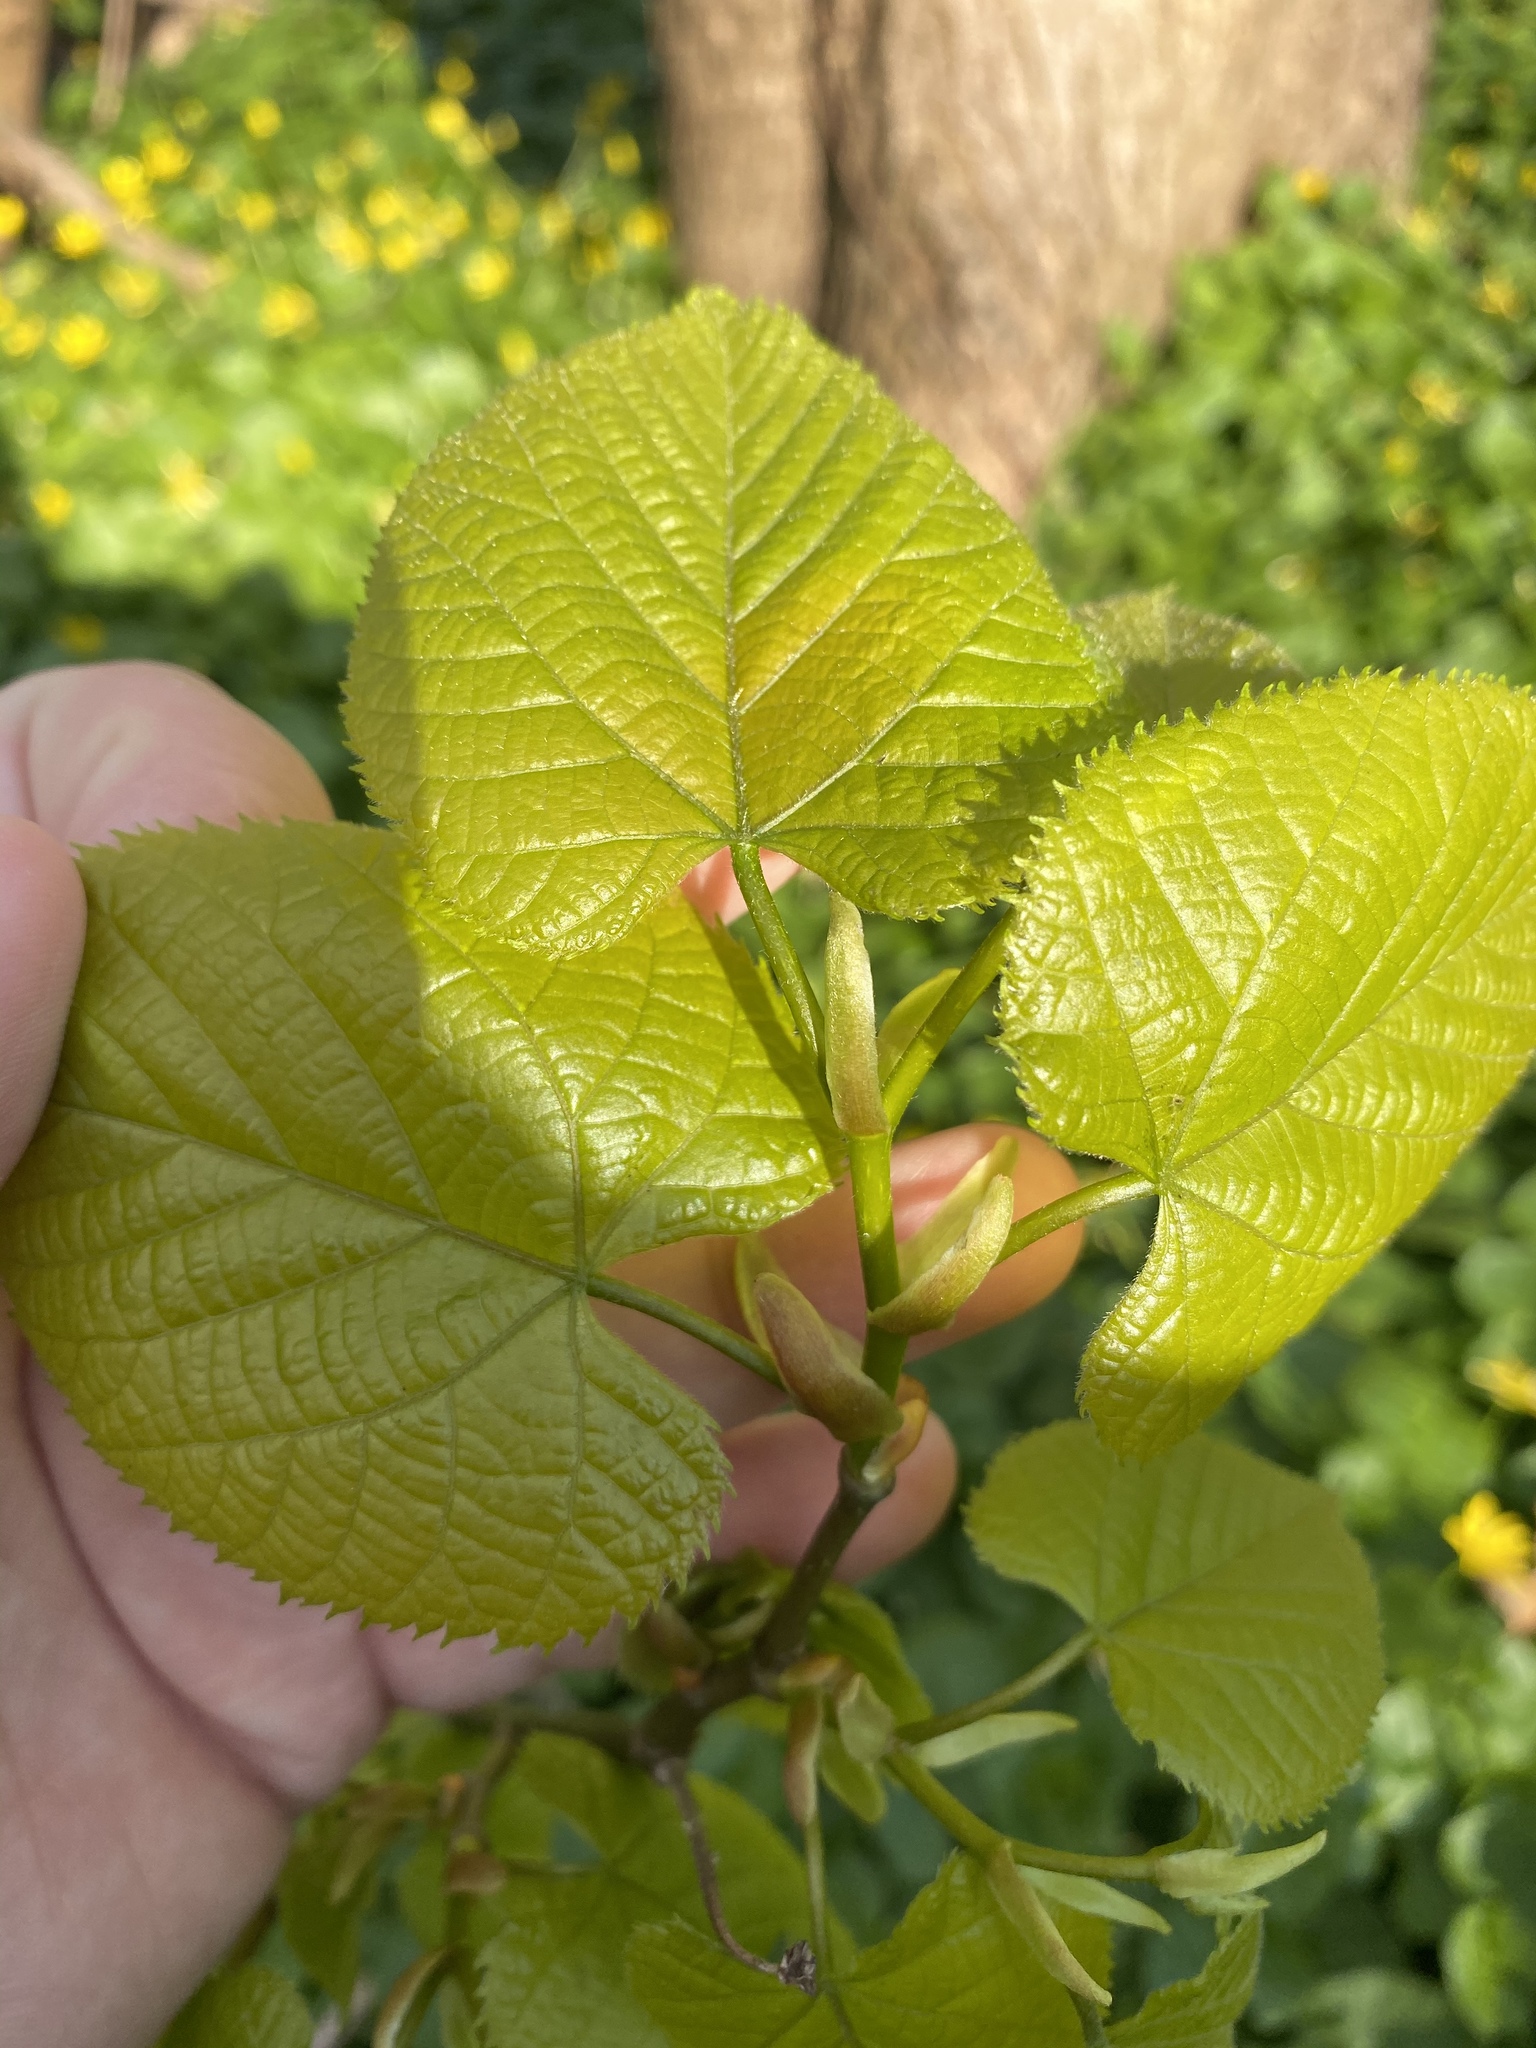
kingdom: Plantae
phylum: Tracheophyta
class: Magnoliopsida
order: Malvales
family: Malvaceae
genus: Tilia
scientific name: Tilia americana
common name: Basswood
